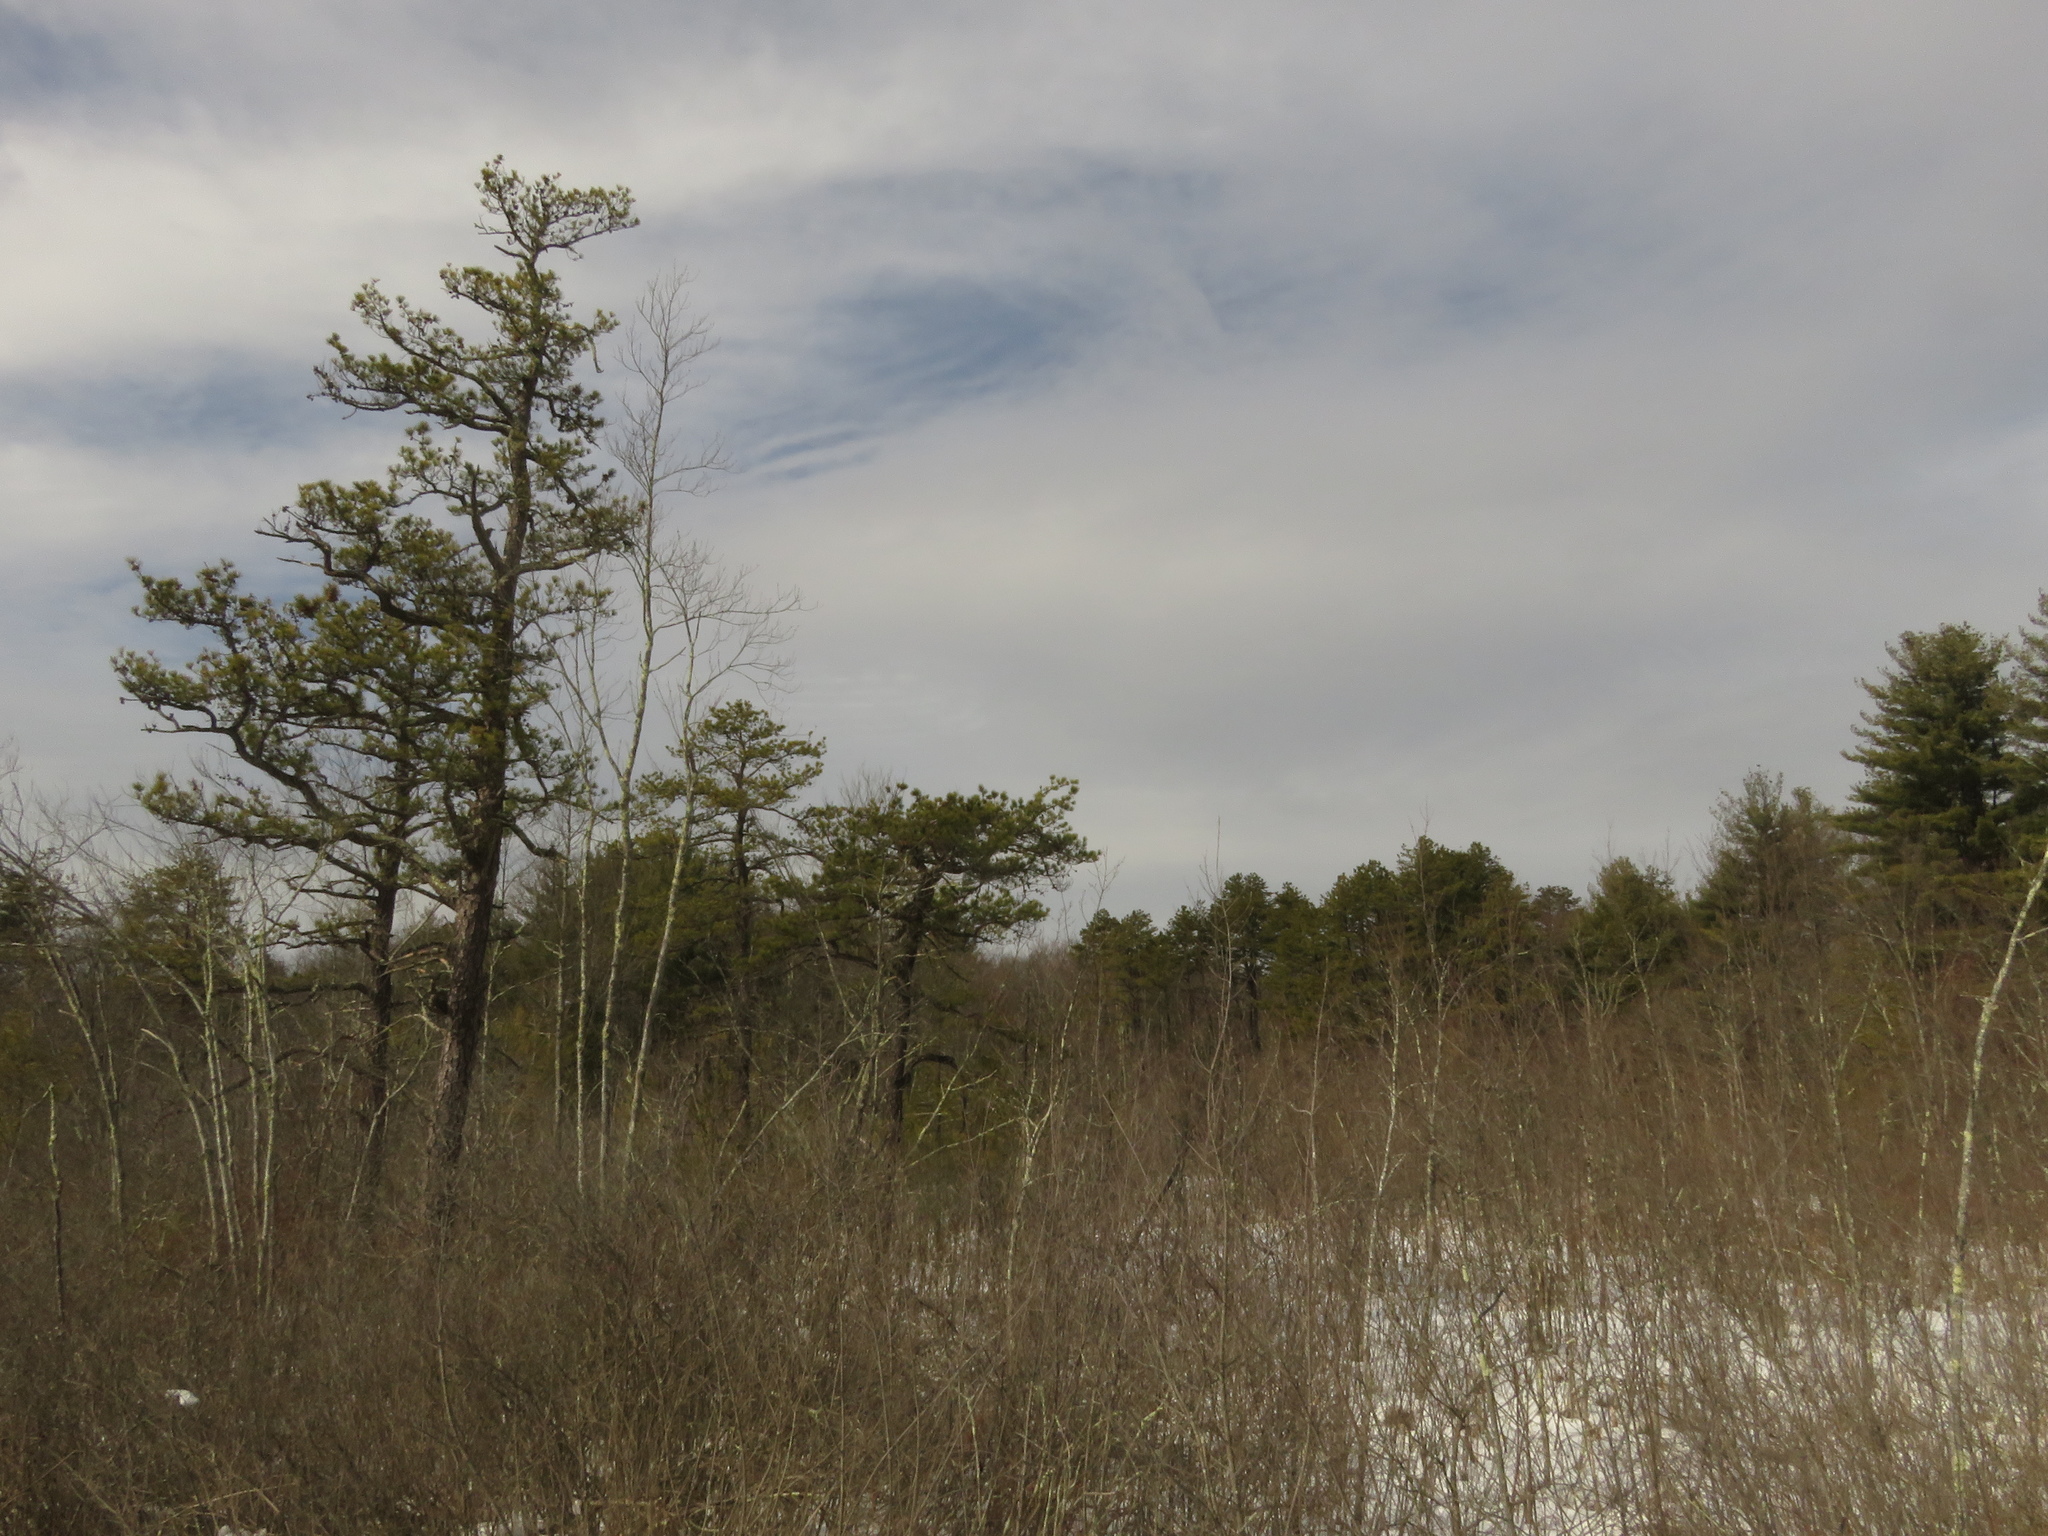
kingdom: Plantae
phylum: Tracheophyta
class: Pinopsida
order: Pinales
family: Pinaceae
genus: Pinus
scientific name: Pinus rigida
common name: Pitch pine
